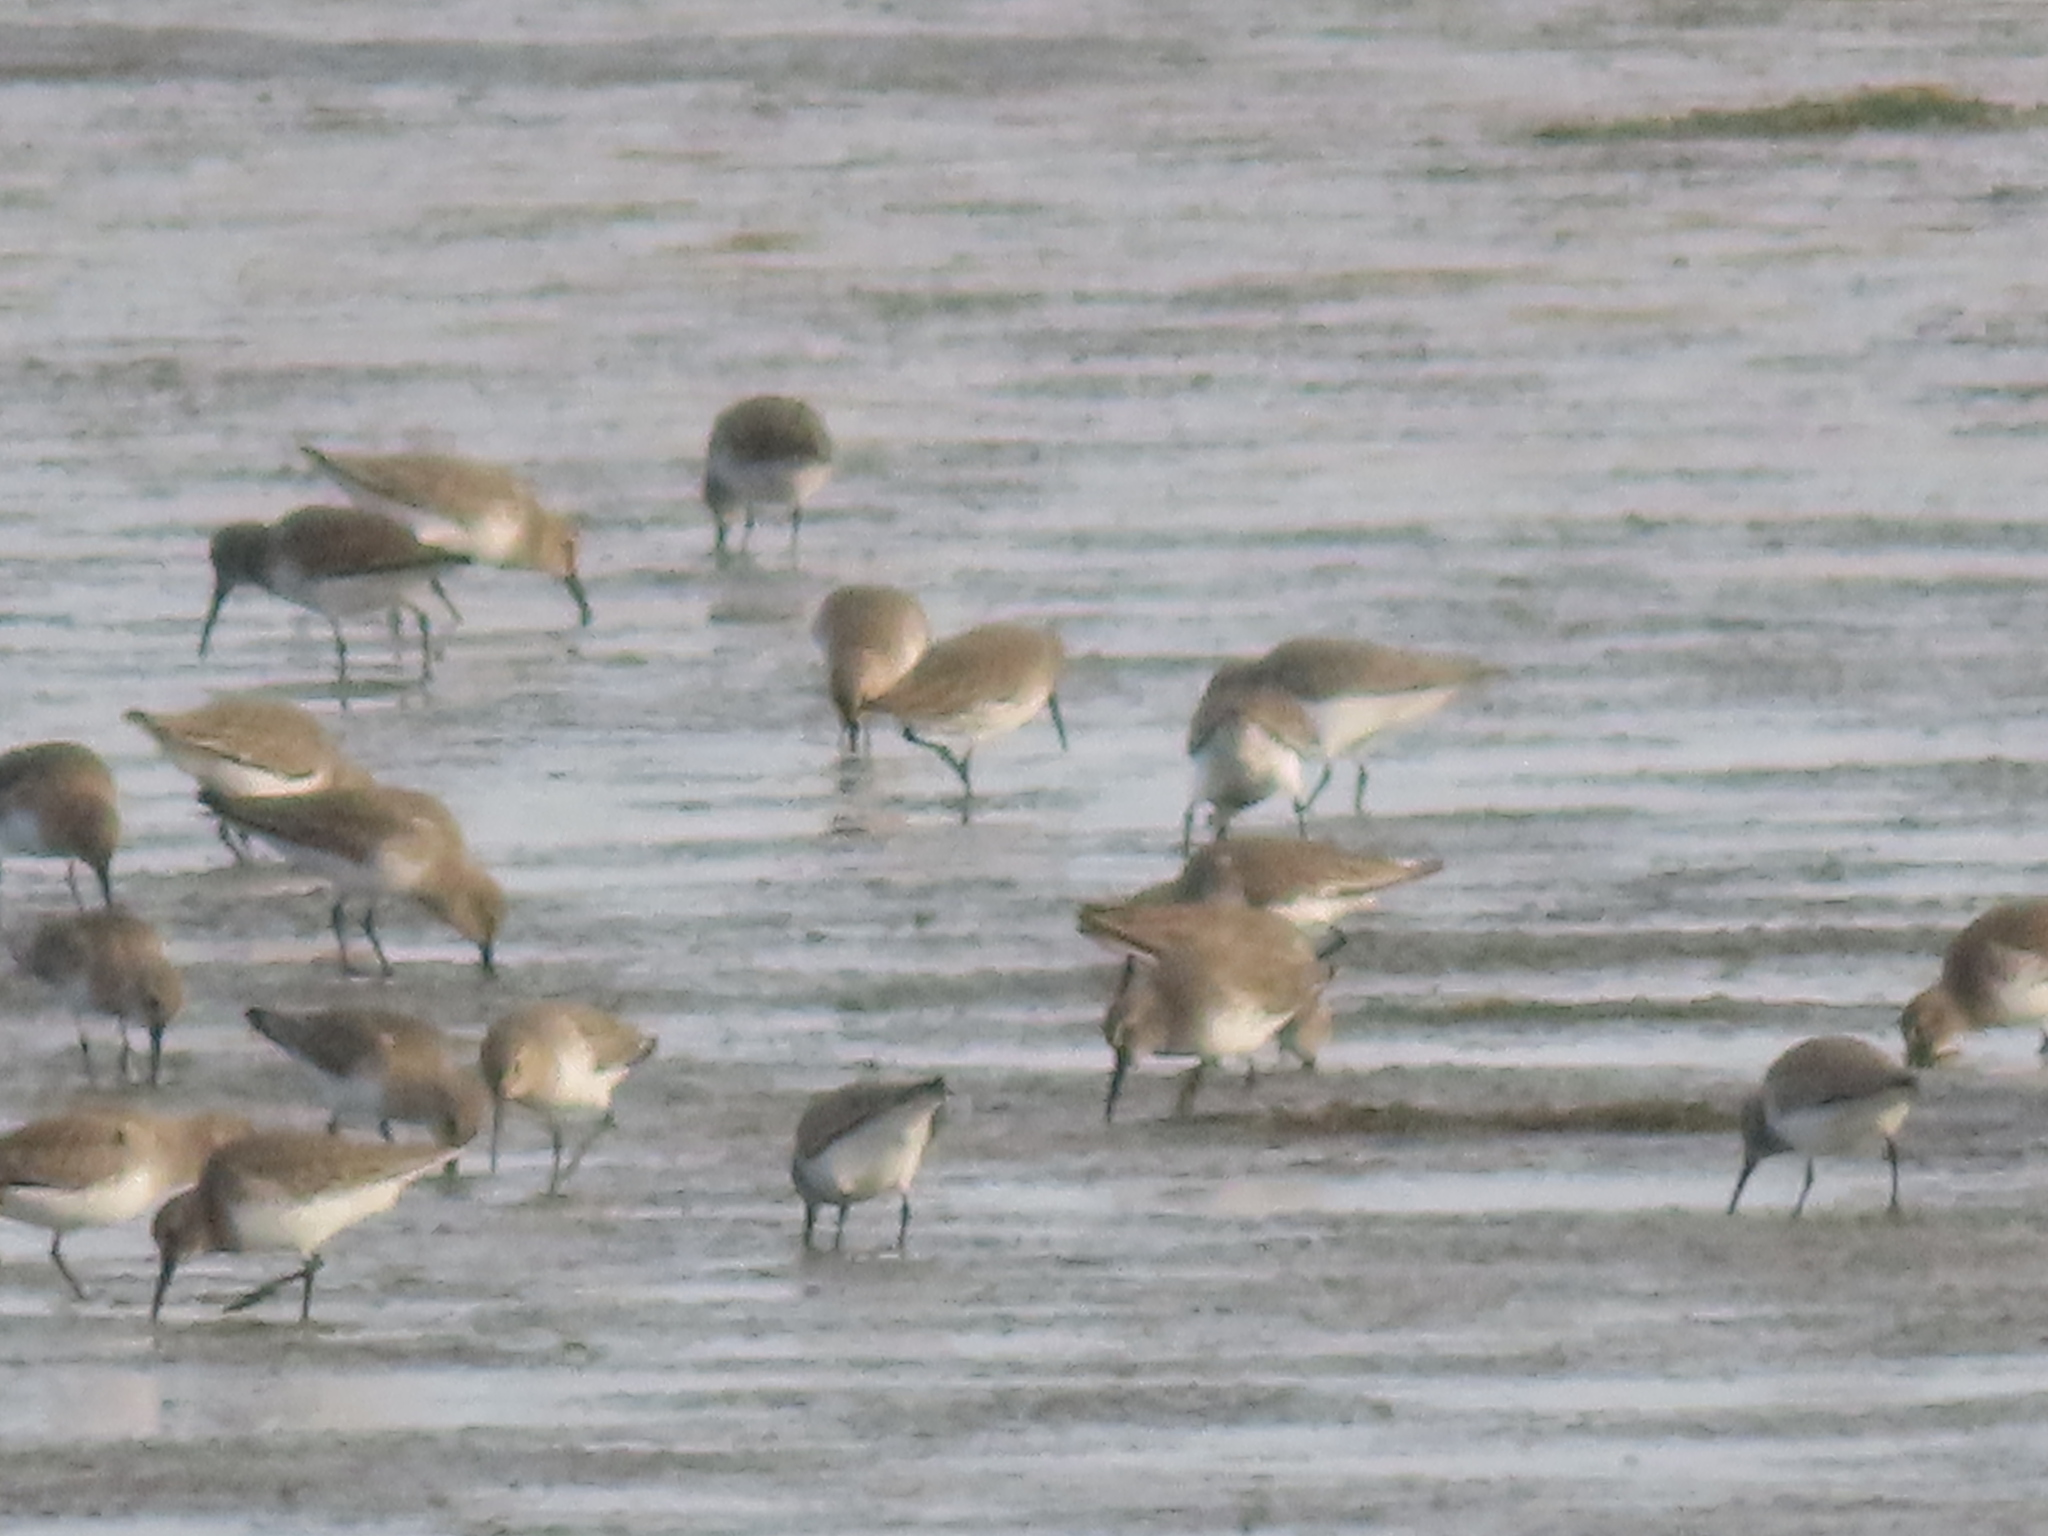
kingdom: Animalia
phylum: Chordata
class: Aves
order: Charadriiformes
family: Scolopacidae
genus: Calidris
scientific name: Calidris alpina
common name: Dunlin
